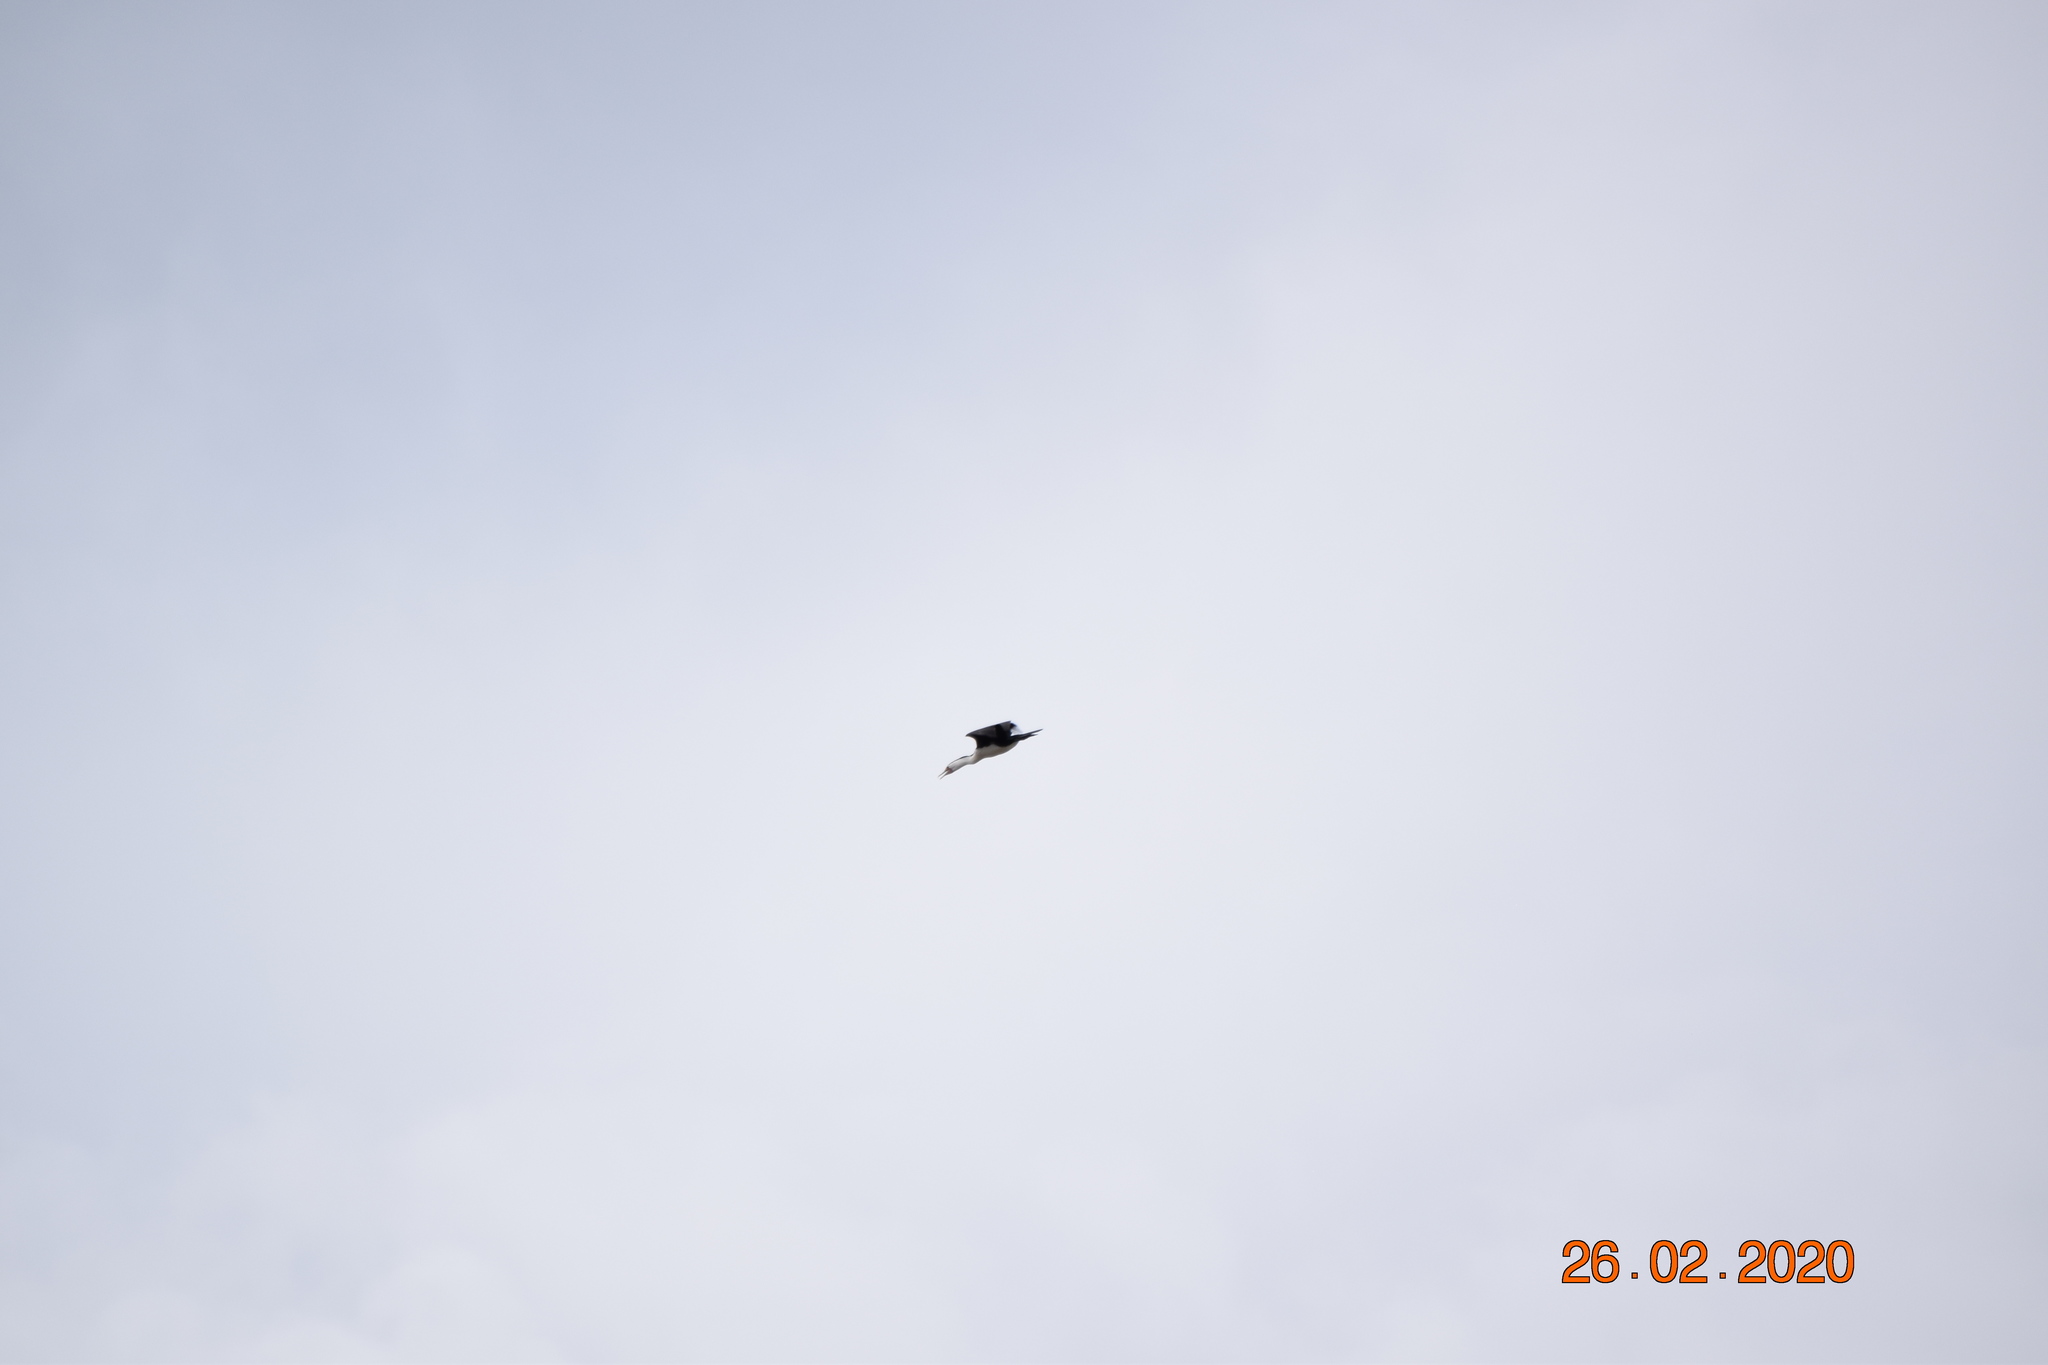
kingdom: Animalia
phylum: Chordata
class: Aves
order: Suliformes
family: Phalacrocoracidae
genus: Phalacrocorax
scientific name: Phalacrocorax varius
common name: Pied cormorant
